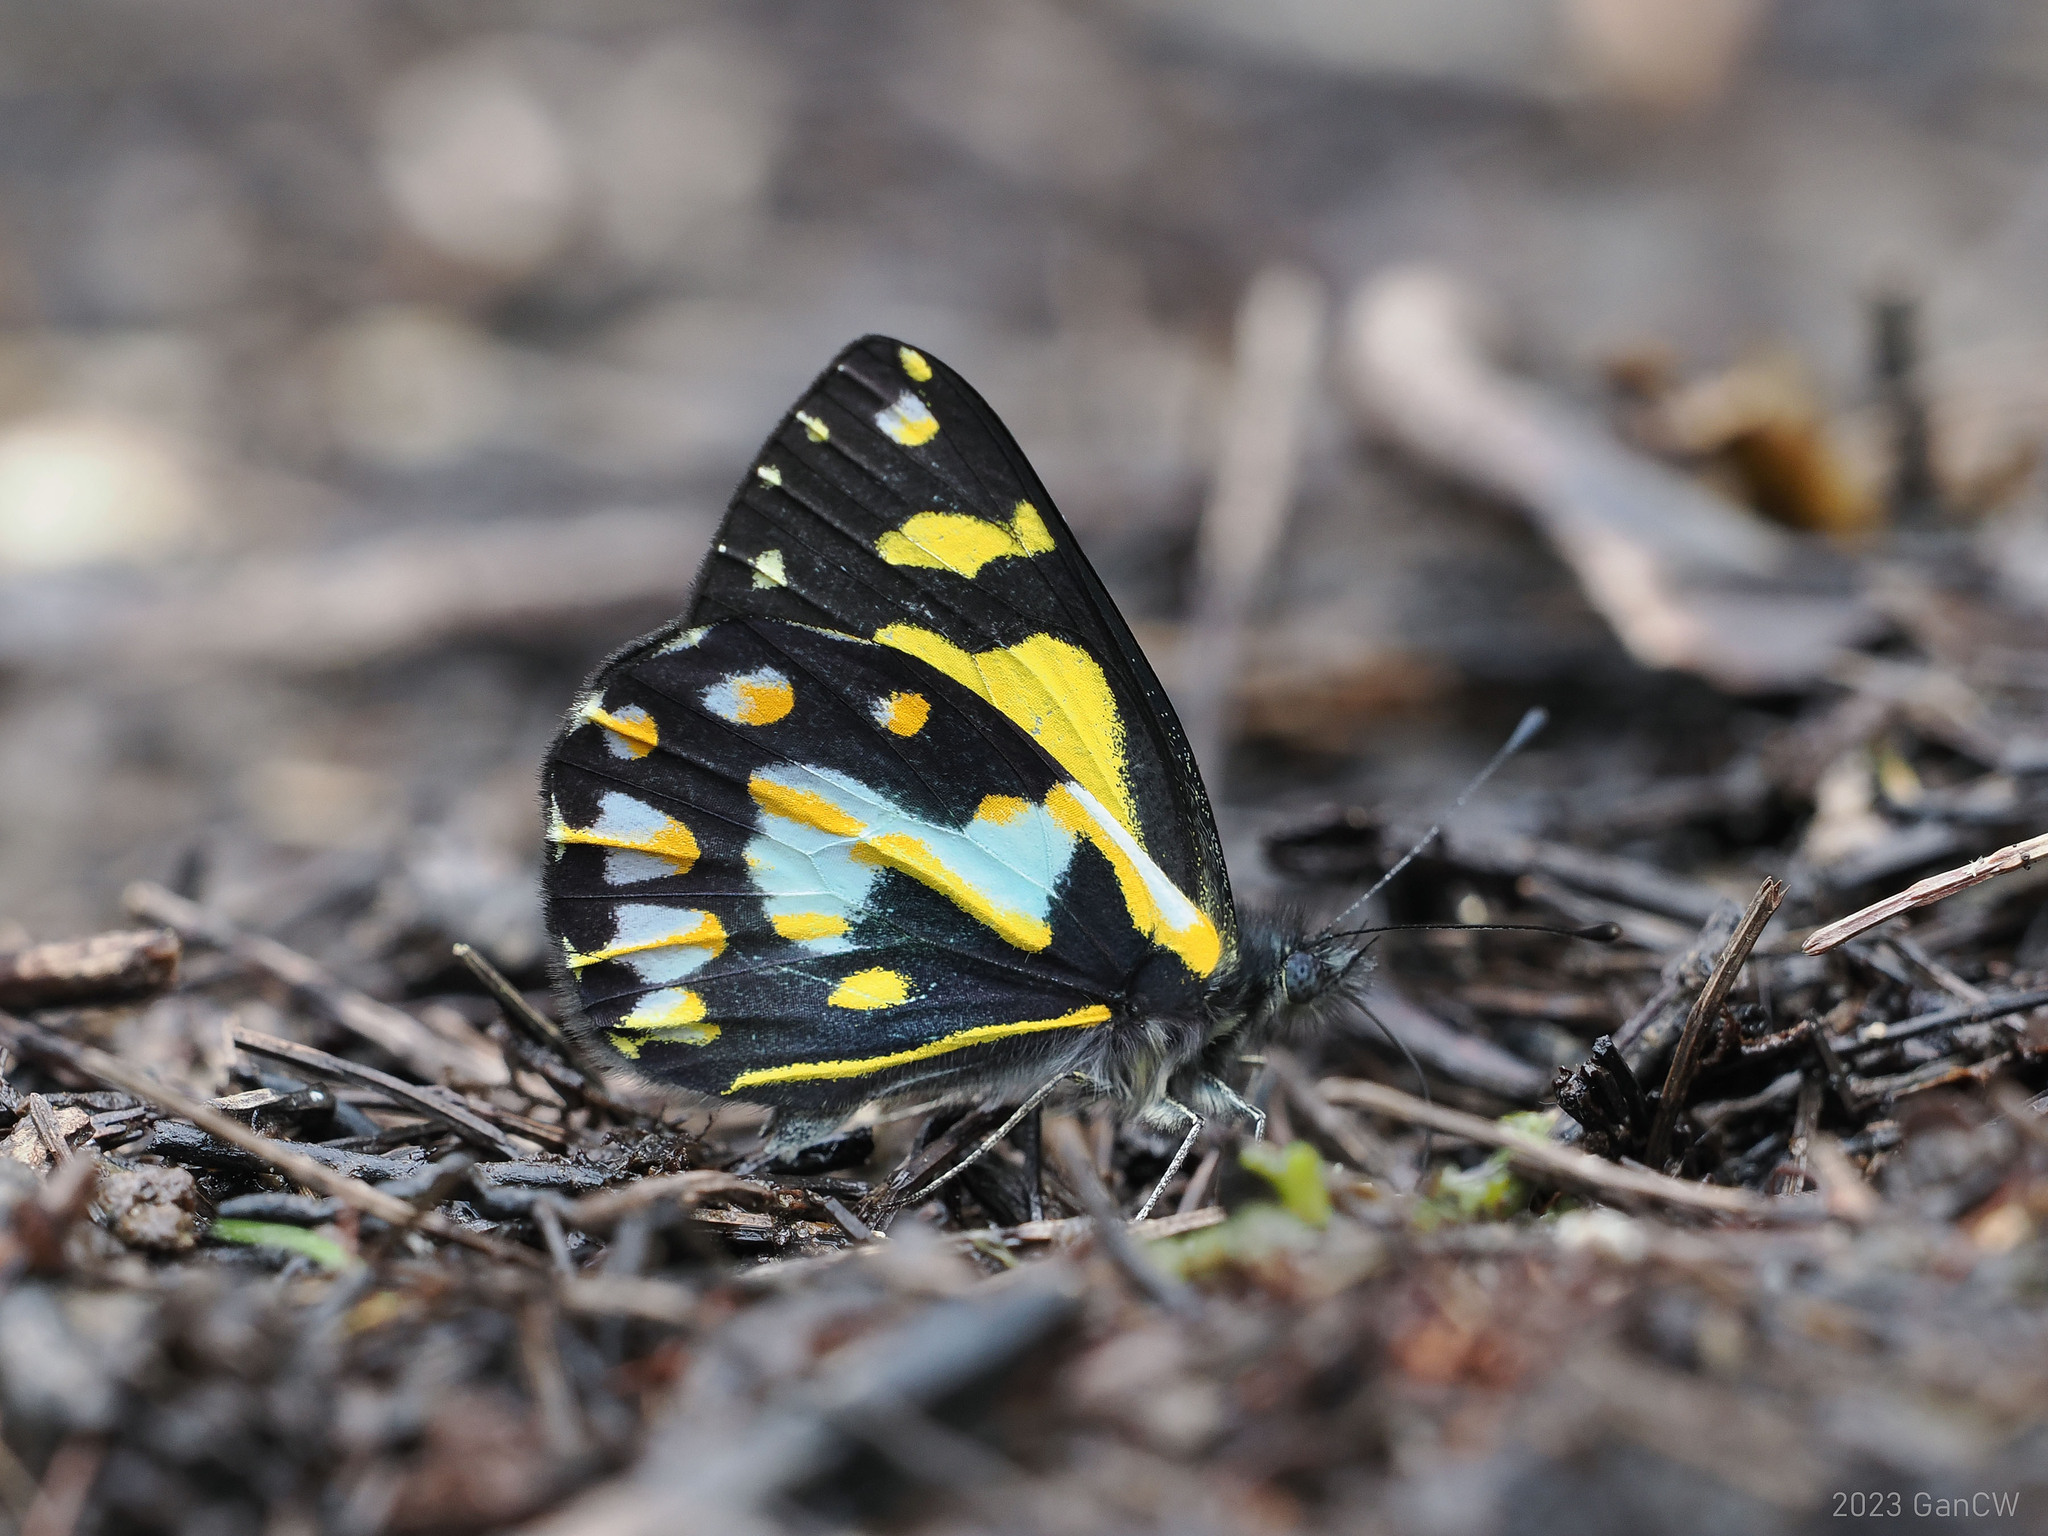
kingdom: Animalia
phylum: Arthropoda
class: Insecta
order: Lepidoptera
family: Pieridae
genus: Delias
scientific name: Delias toxopei
